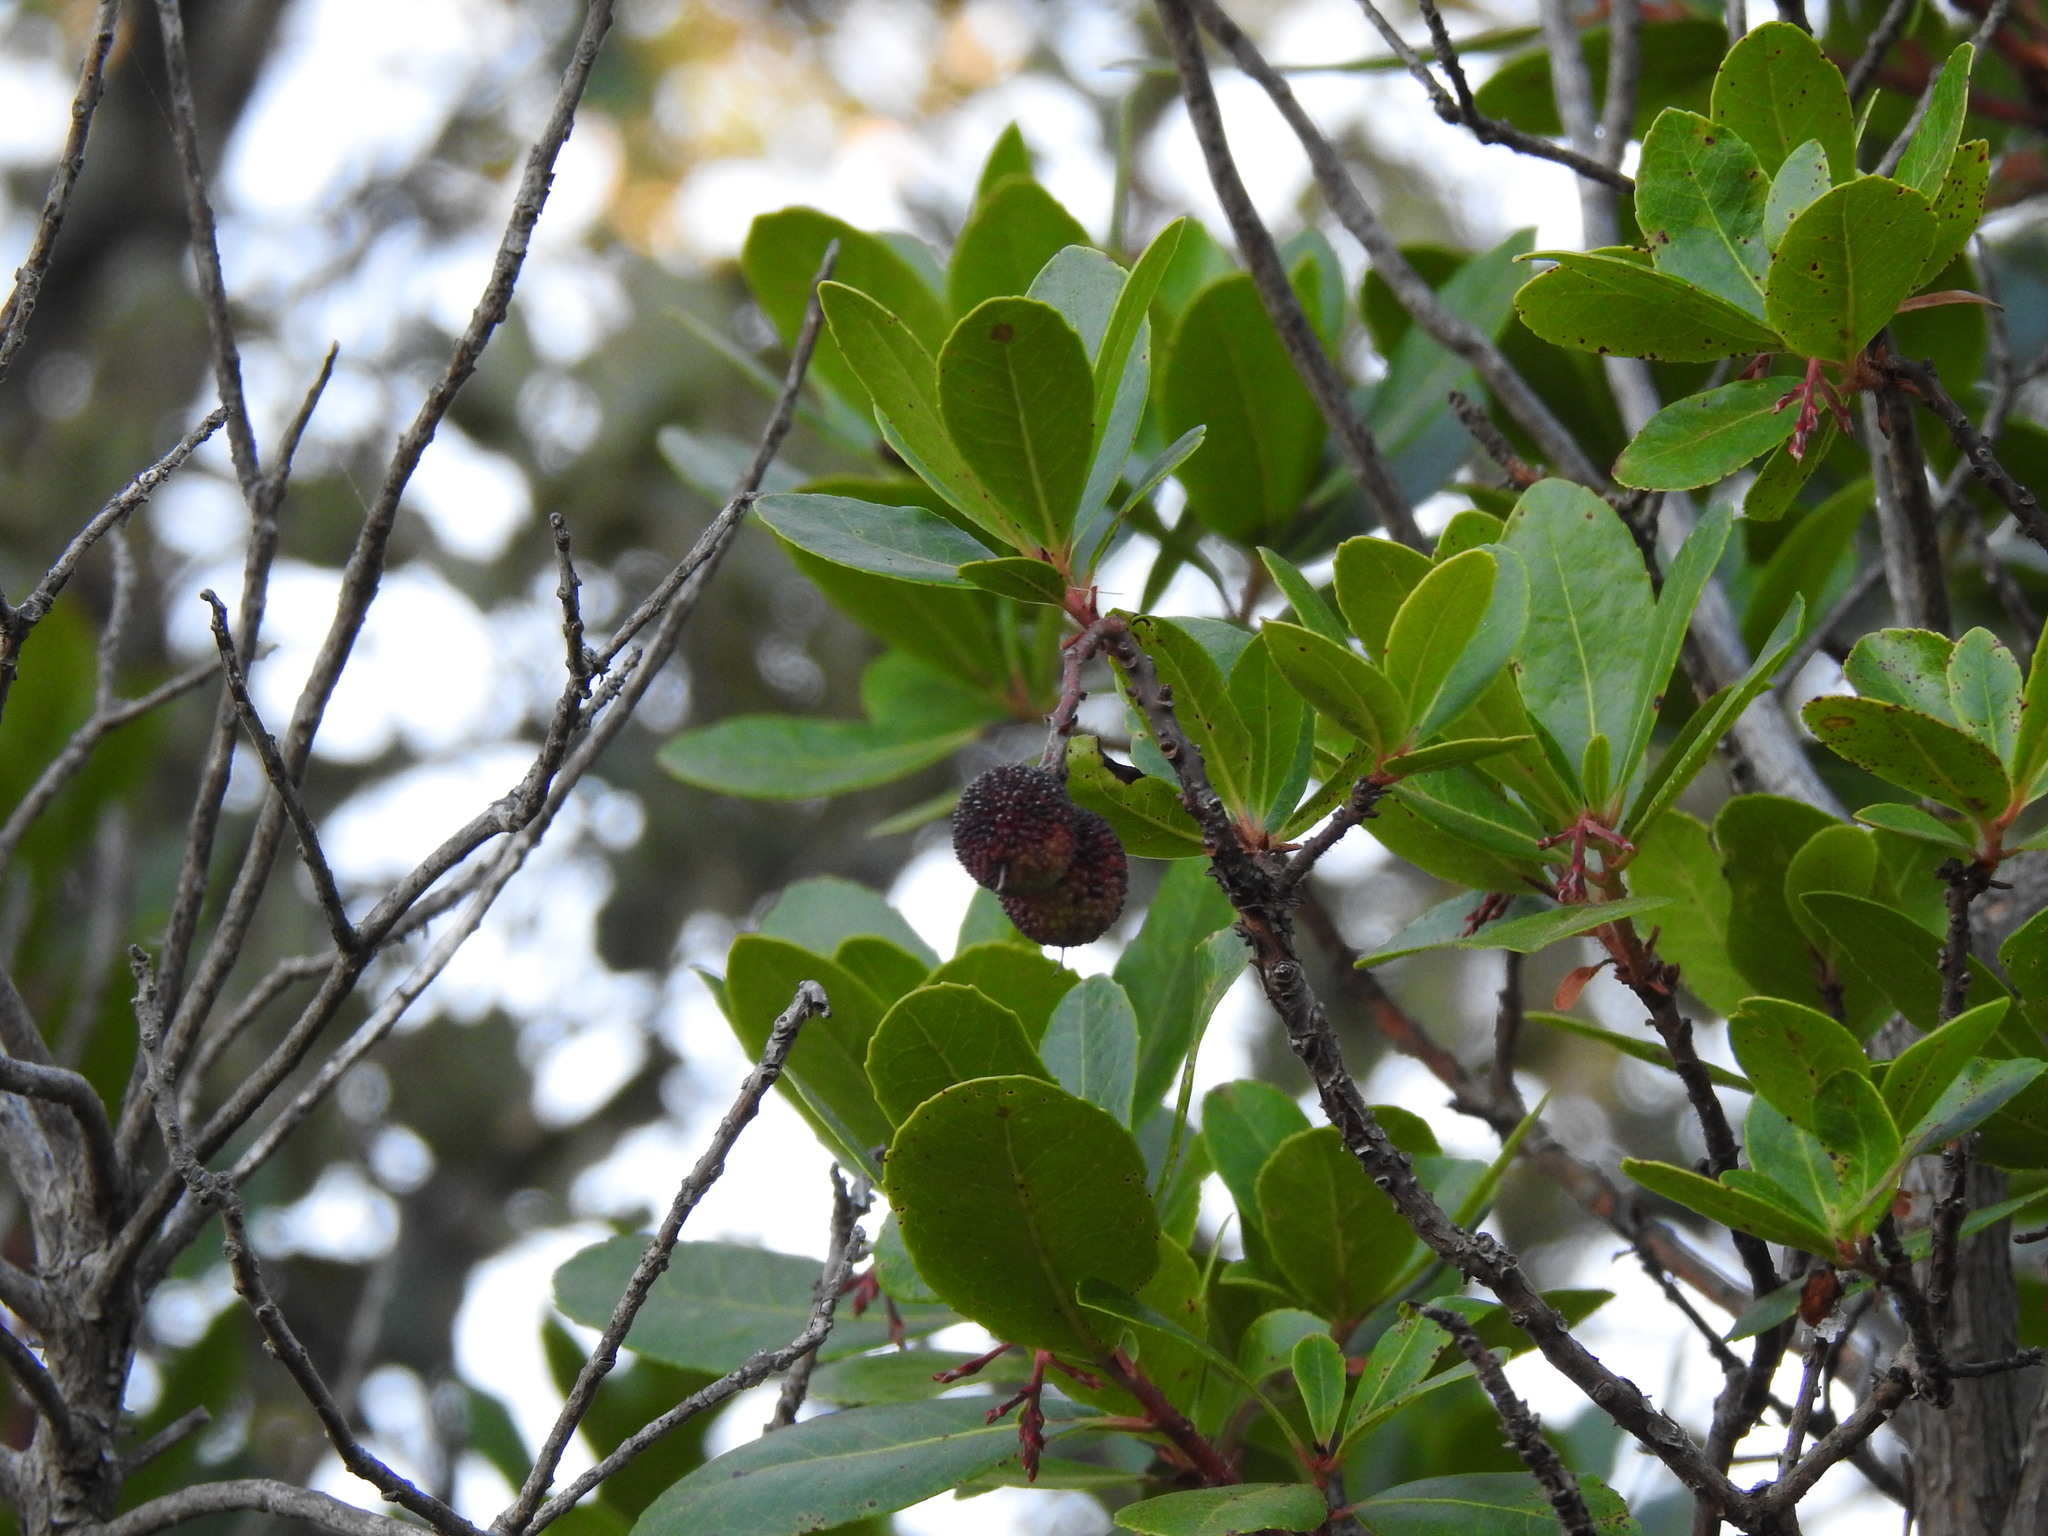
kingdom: Plantae
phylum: Tracheophyta
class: Magnoliopsida
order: Ericales
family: Ericaceae
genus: Arbutus
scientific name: Arbutus unedo
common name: Strawberry-tree
